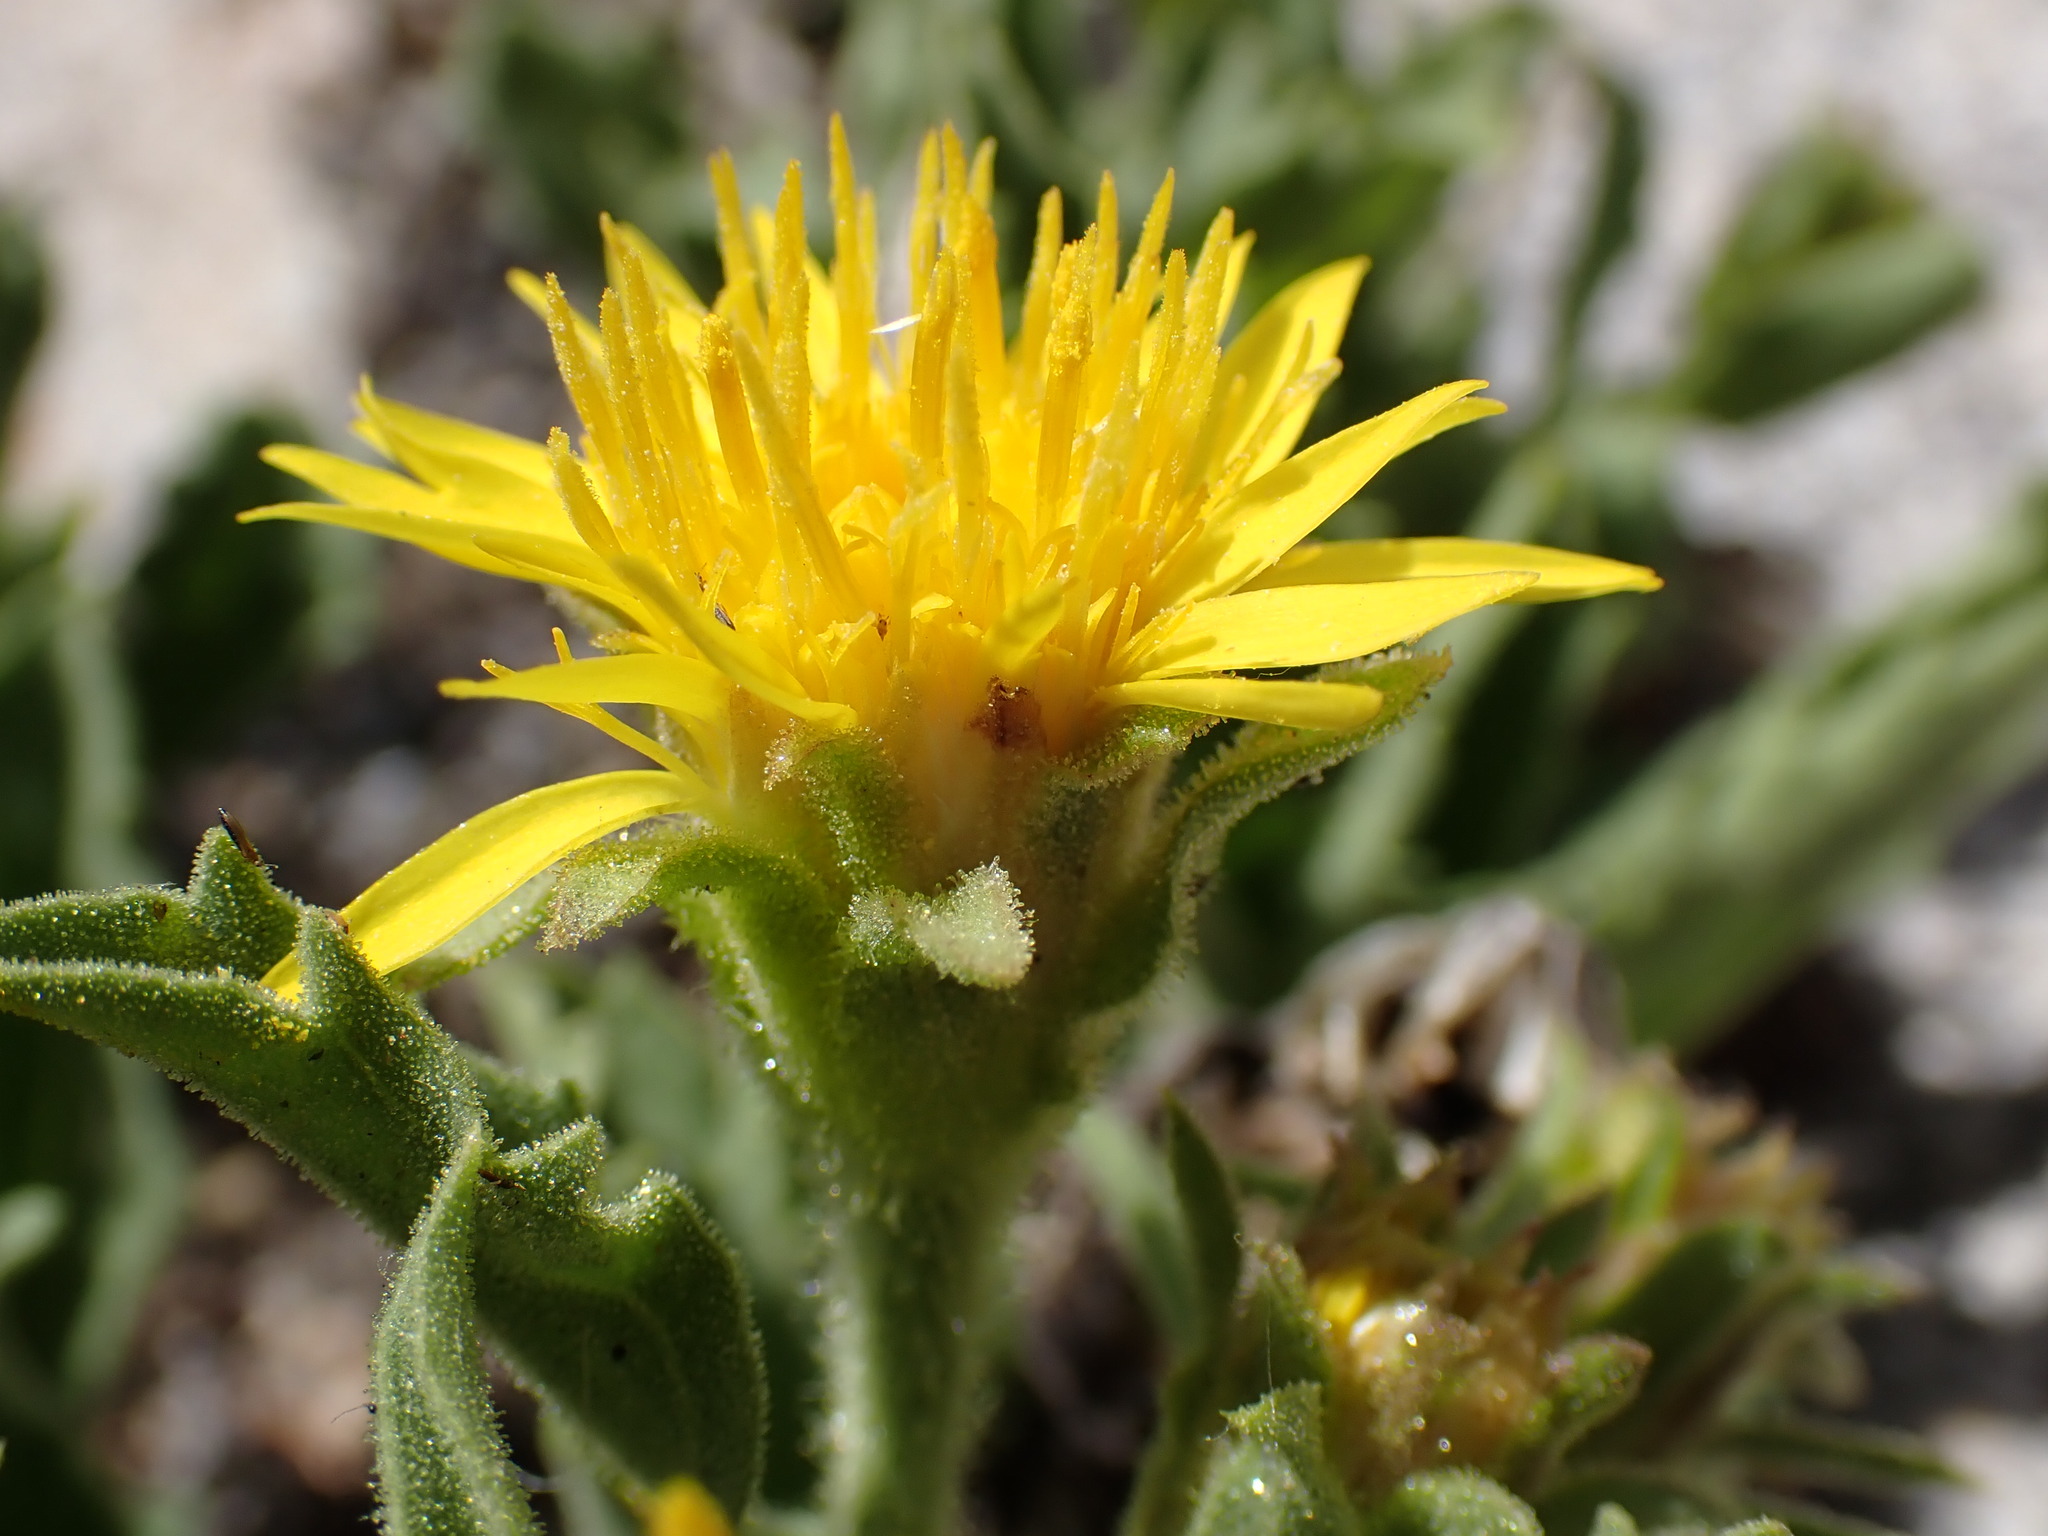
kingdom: Plantae
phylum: Tracheophyta
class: Magnoliopsida
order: Asterales
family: Asteraceae
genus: Toiyabea
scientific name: Toiyabea peirsonii
